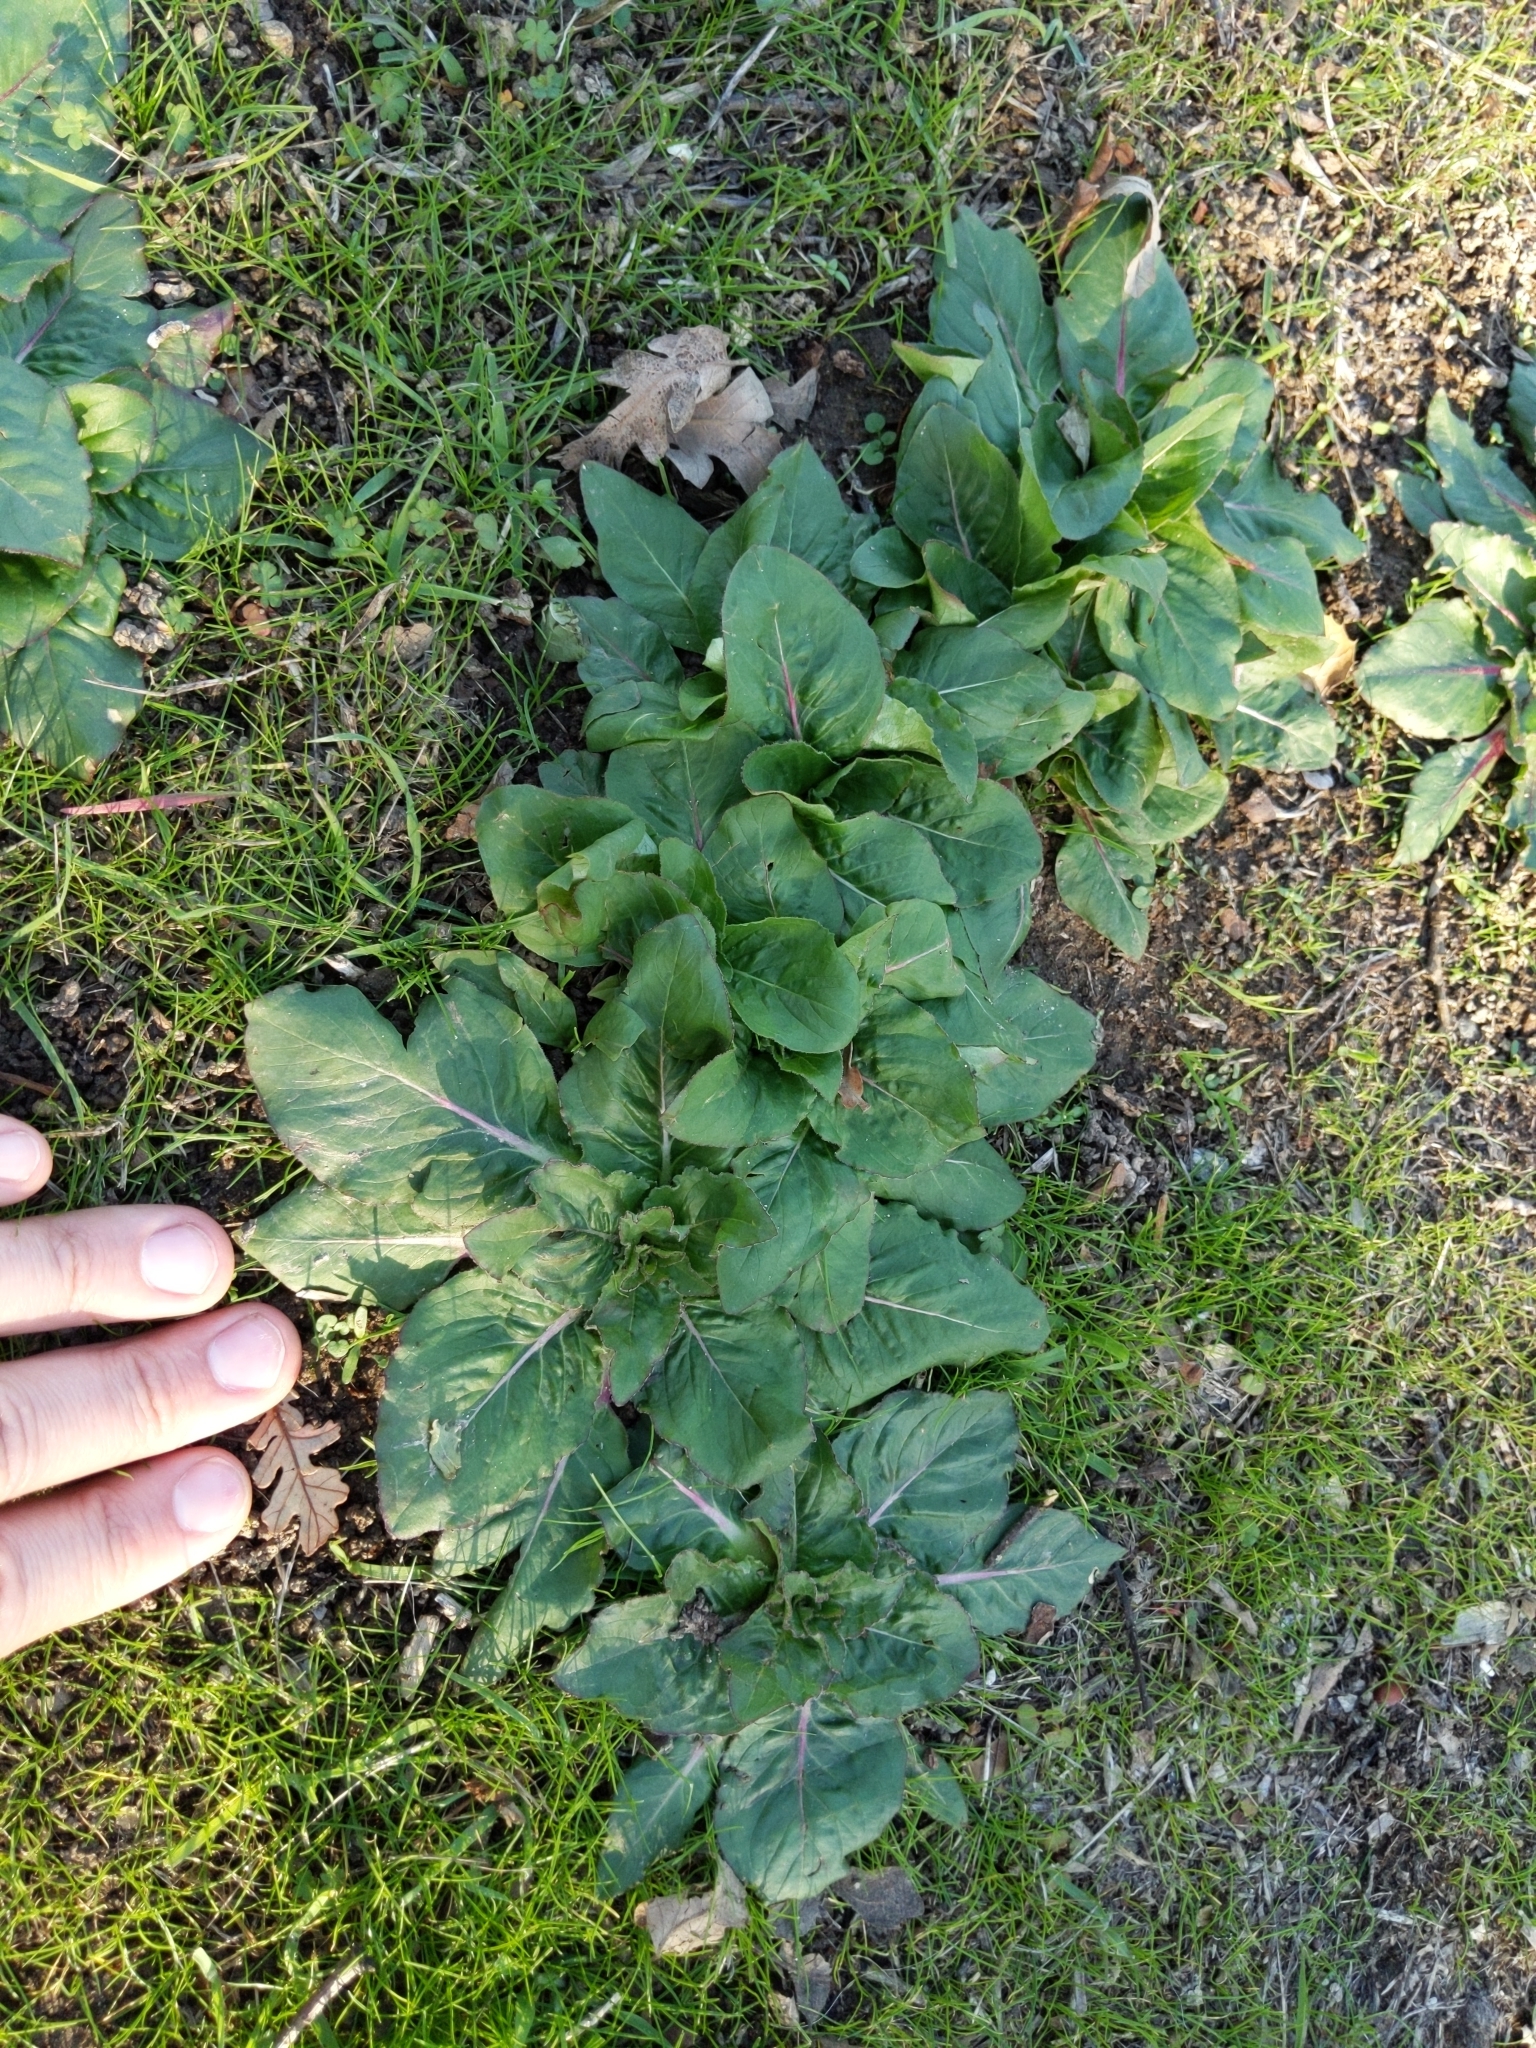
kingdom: Plantae
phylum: Tracheophyta
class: Magnoliopsida
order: Myrtales
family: Onagraceae
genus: Taraxia
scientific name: Taraxia ovata
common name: Goldeneggs
